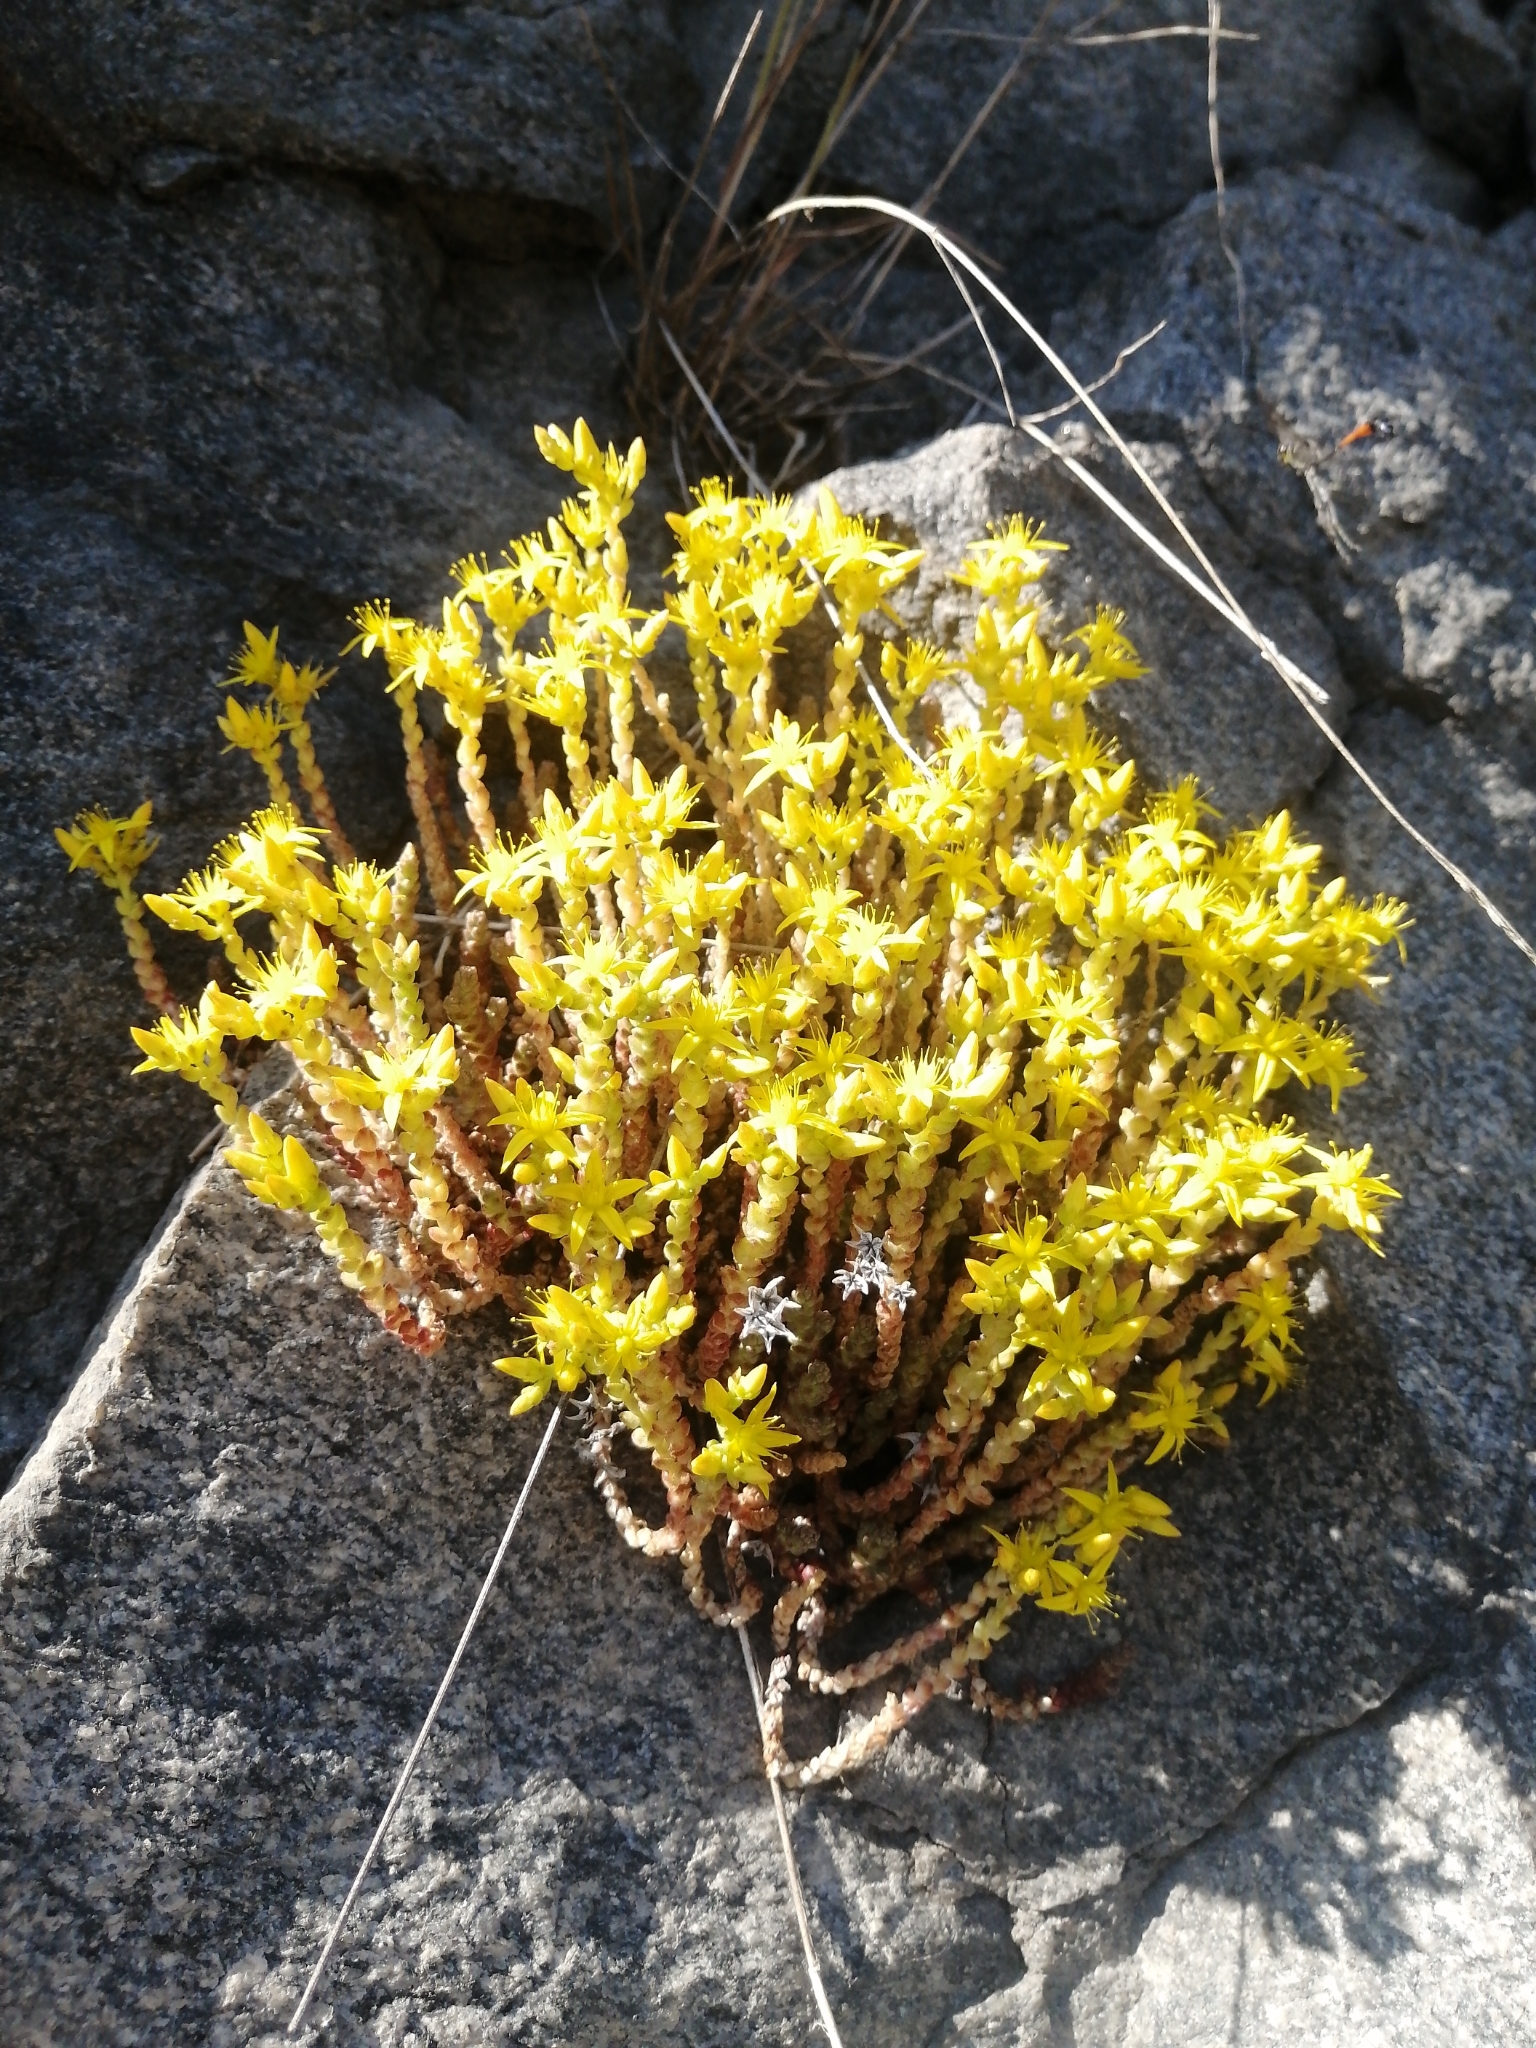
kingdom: Plantae
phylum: Tracheophyta
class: Magnoliopsida
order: Saxifragales
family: Crassulaceae
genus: Sedum
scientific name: Sedum acre
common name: Biting stonecrop
